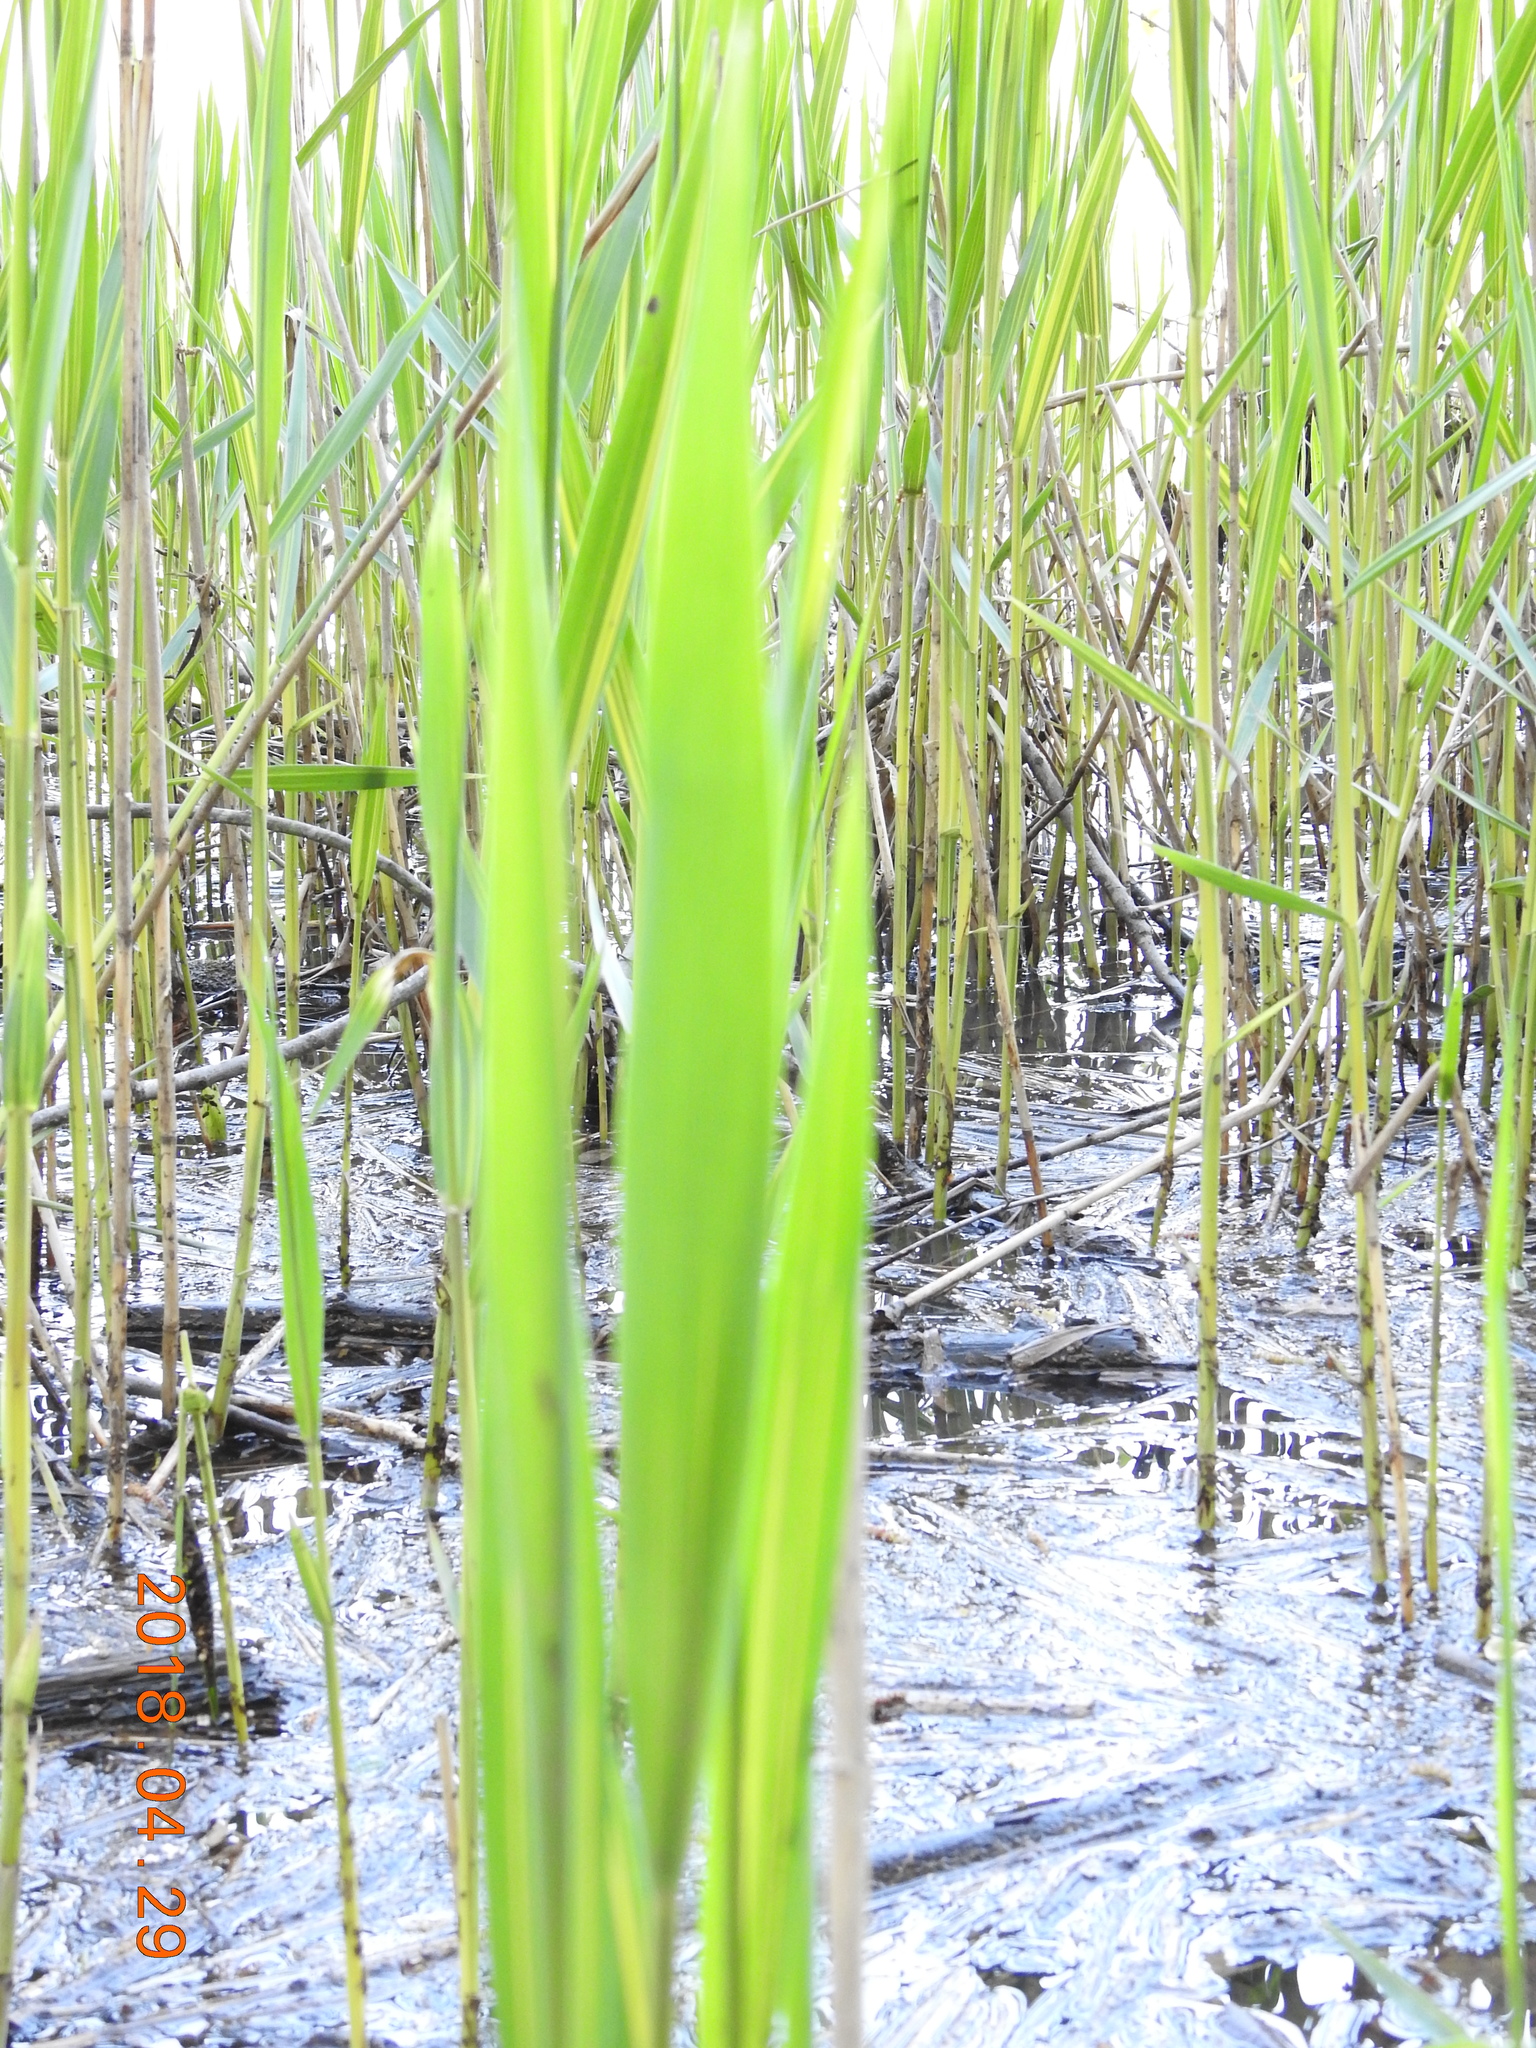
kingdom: Plantae
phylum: Tracheophyta
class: Liliopsida
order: Poales
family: Poaceae
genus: Phragmites
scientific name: Phragmites australis
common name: Common reed
